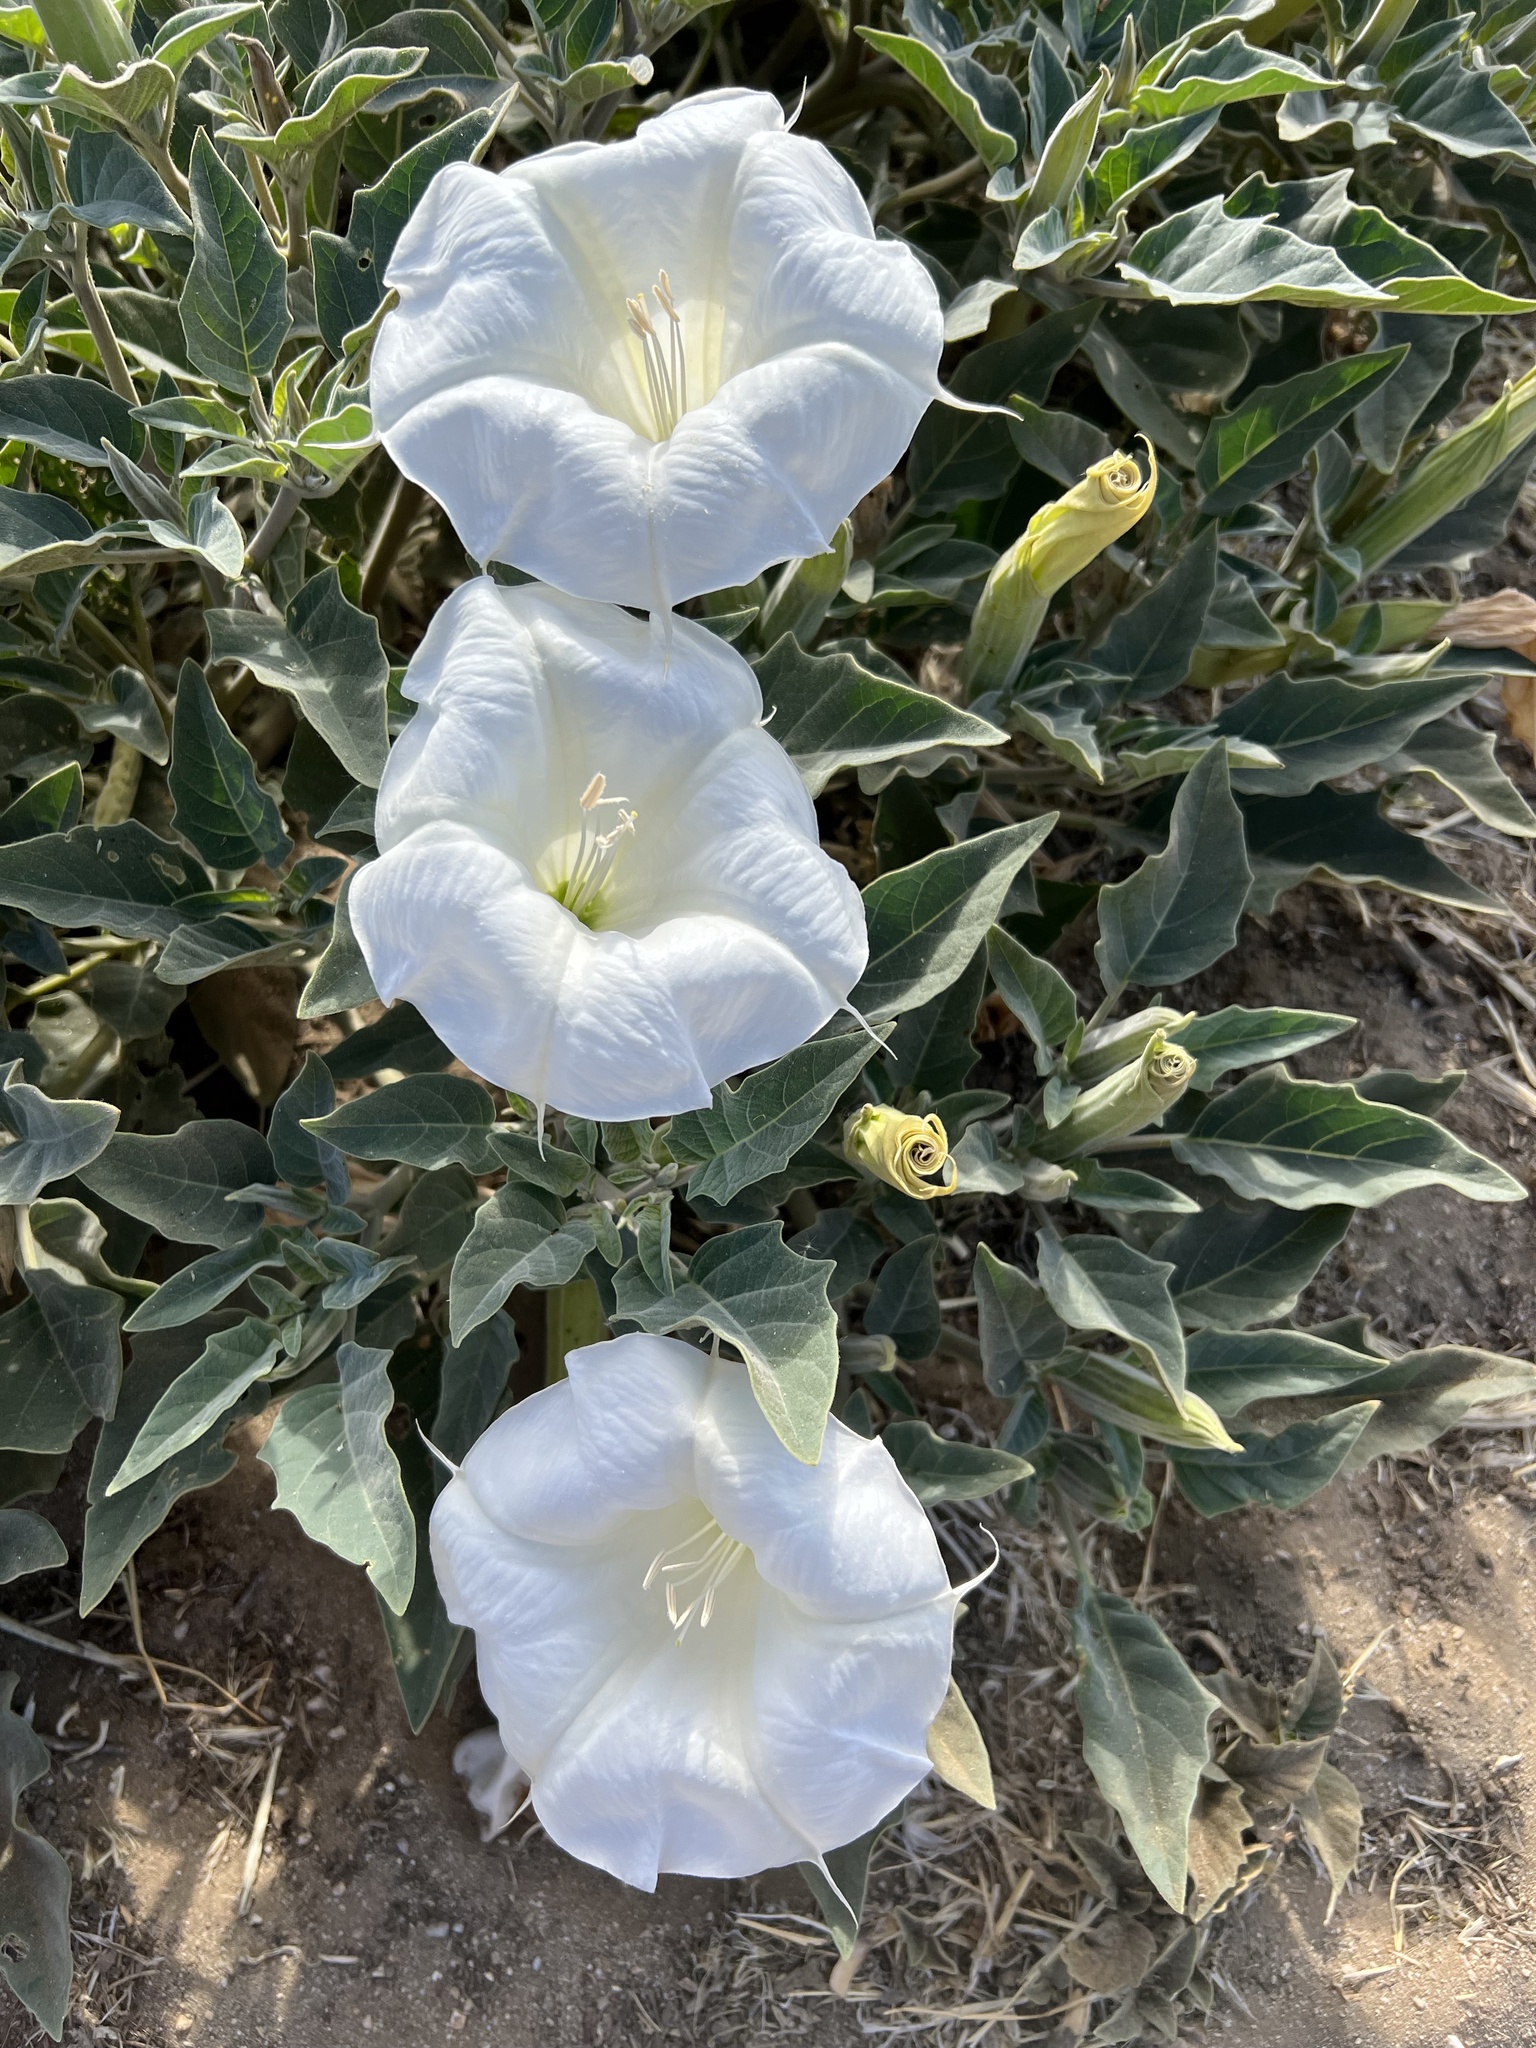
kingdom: Plantae
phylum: Tracheophyta
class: Magnoliopsida
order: Solanales
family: Solanaceae
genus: Datura
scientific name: Datura wrightii
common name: Sacred thorn-apple
